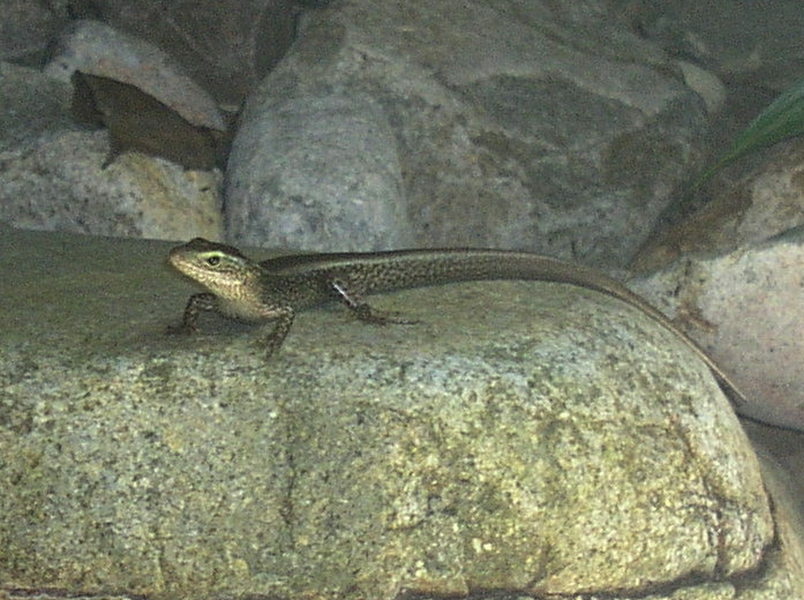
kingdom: Animalia
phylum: Chordata
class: Squamata
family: Scincidae
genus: Eulamprus
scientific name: Eulamprus quoyii
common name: Eastern water skink
